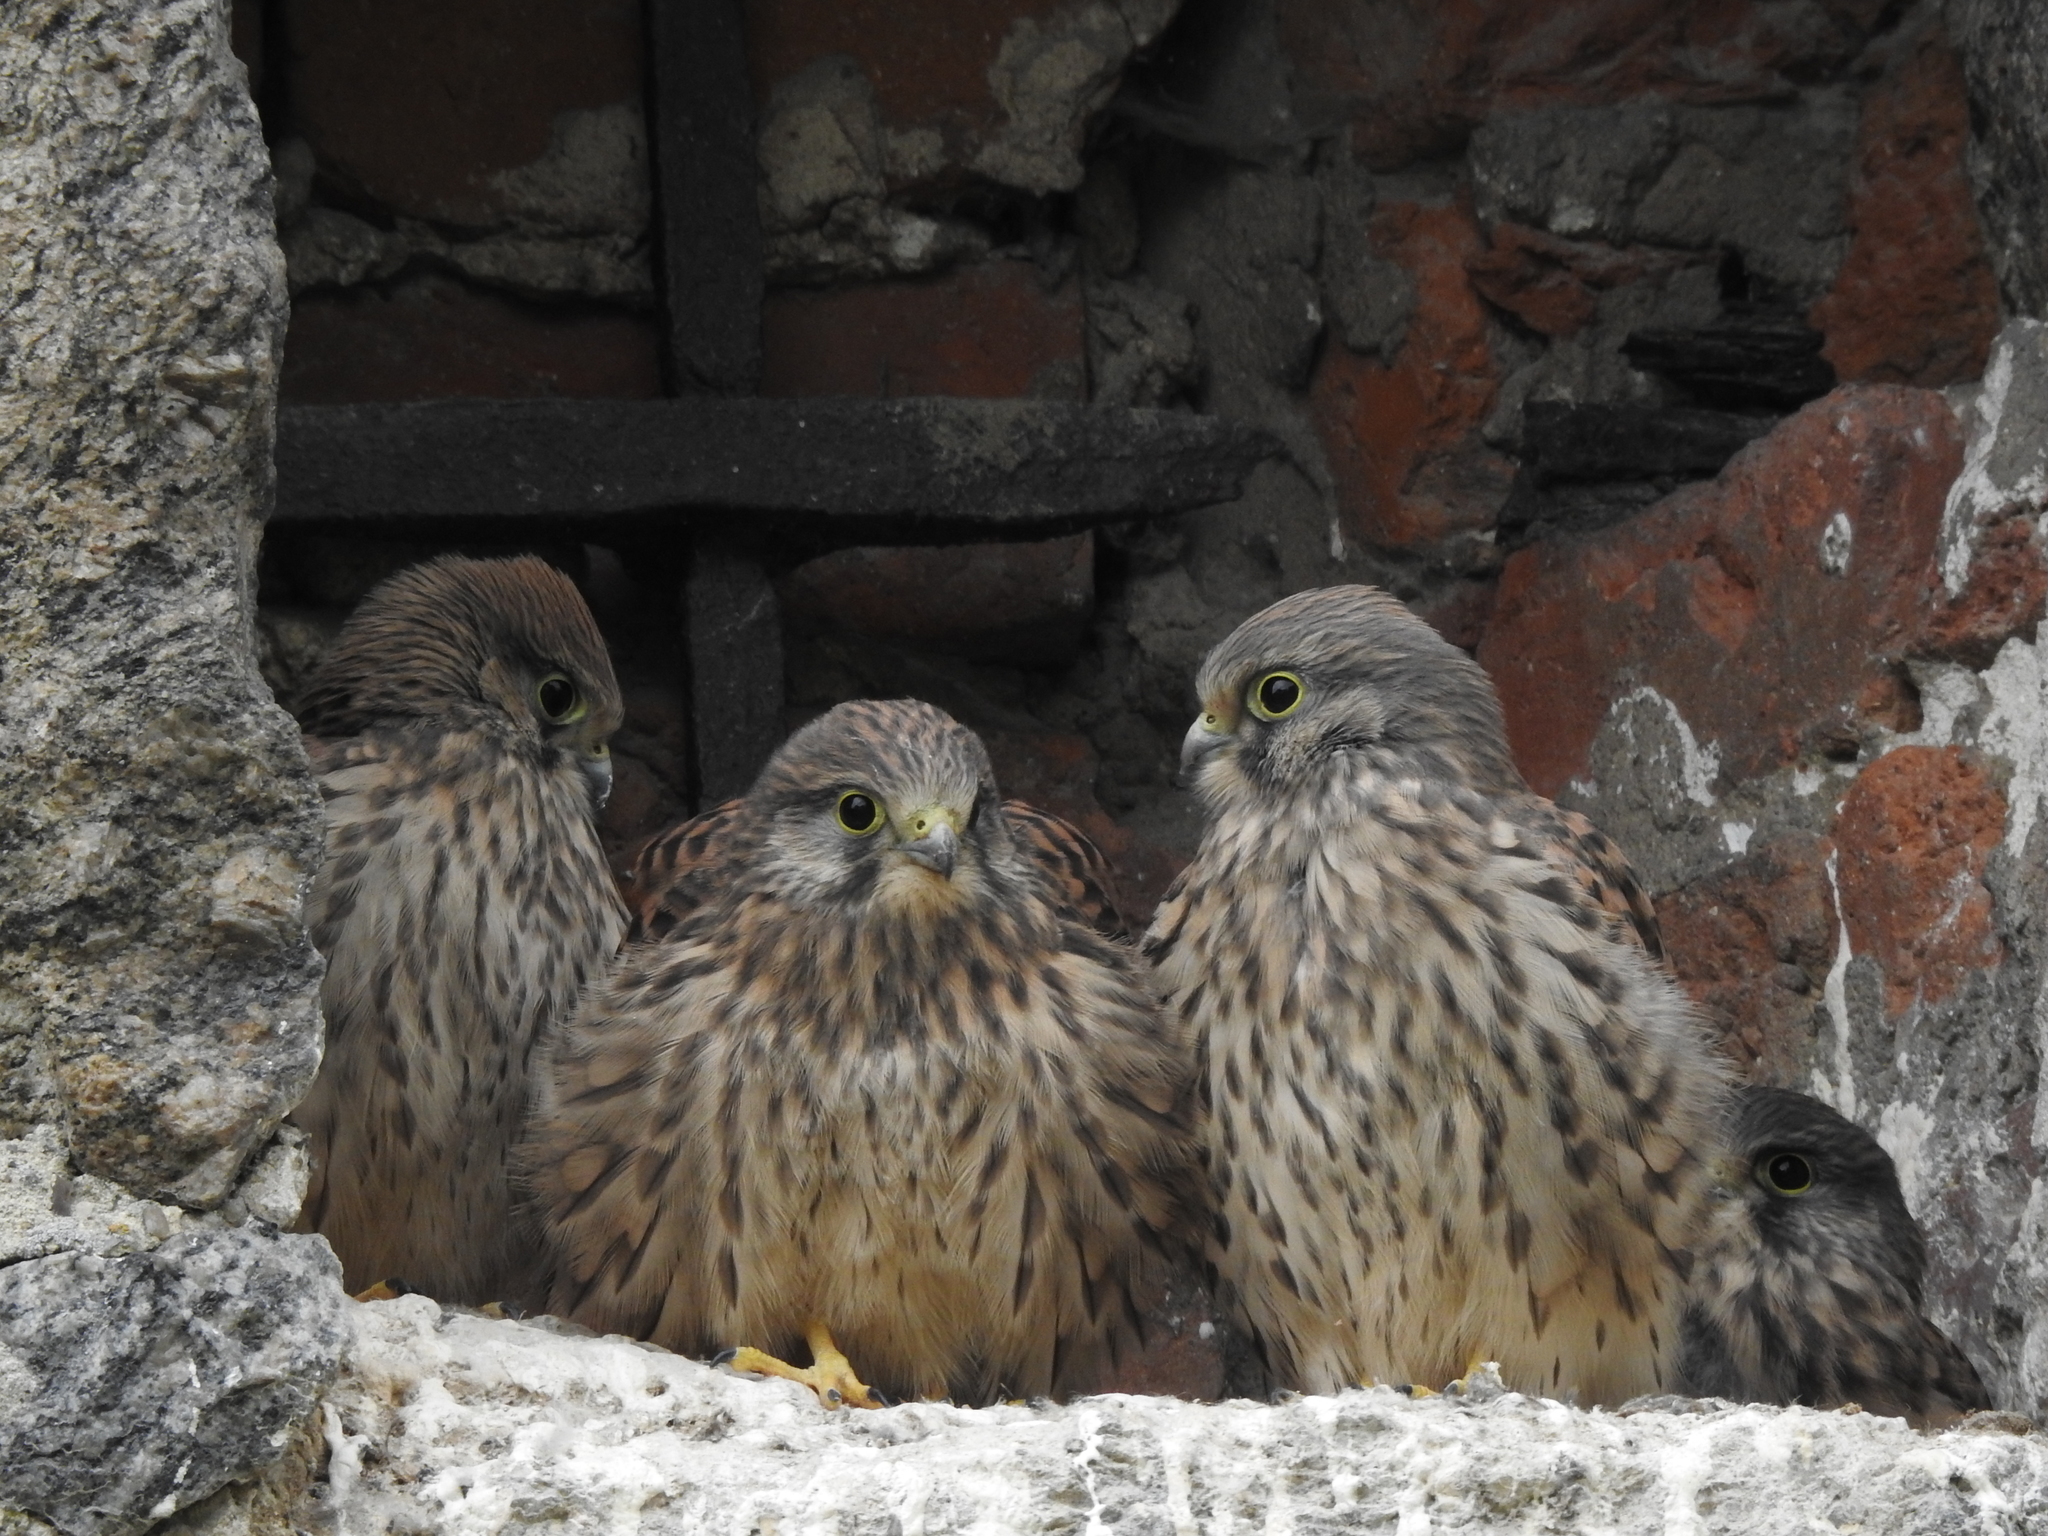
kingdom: Animalia
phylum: Chordata
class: Aves
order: Falconiformes
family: Falconidae
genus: Falco
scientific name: Falco tinnunculus
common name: Common kestrel
